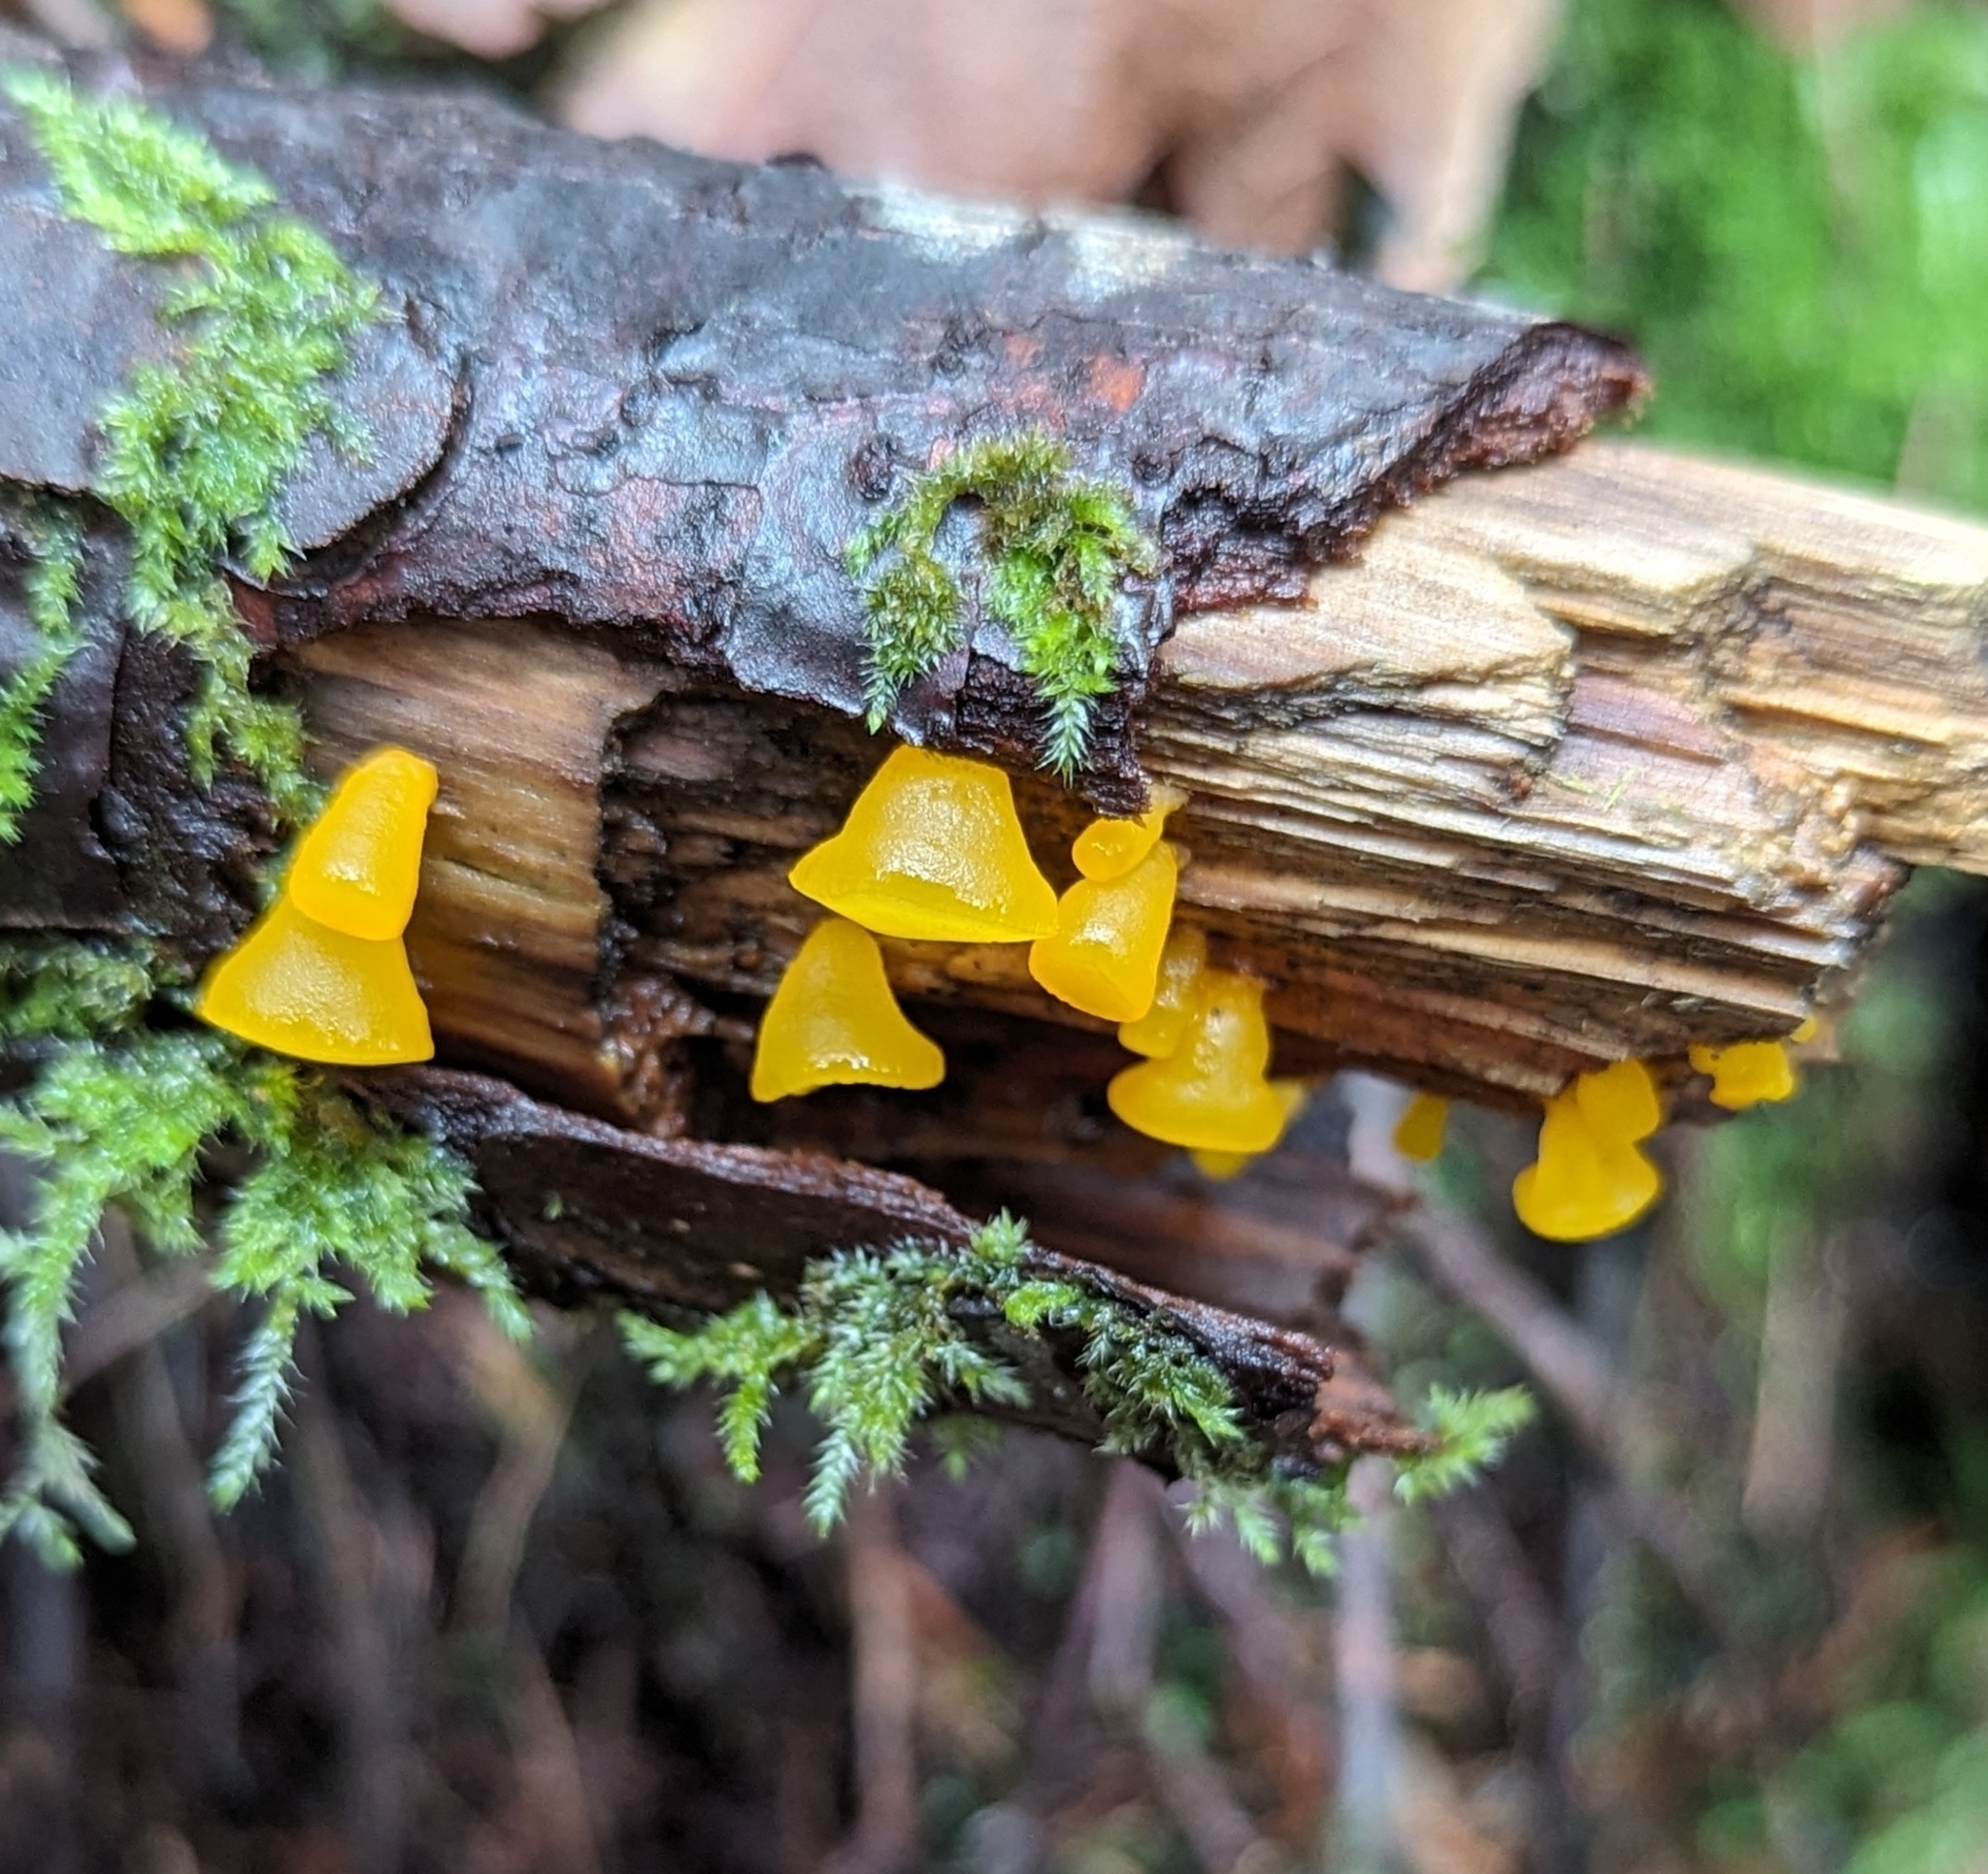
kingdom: Fungi
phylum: Basidiomycota
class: Dacrymycetes
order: Dacrymycetales
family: Dacrymycetaceae
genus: Guepiniopsis
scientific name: Guepiniopsis alpina
